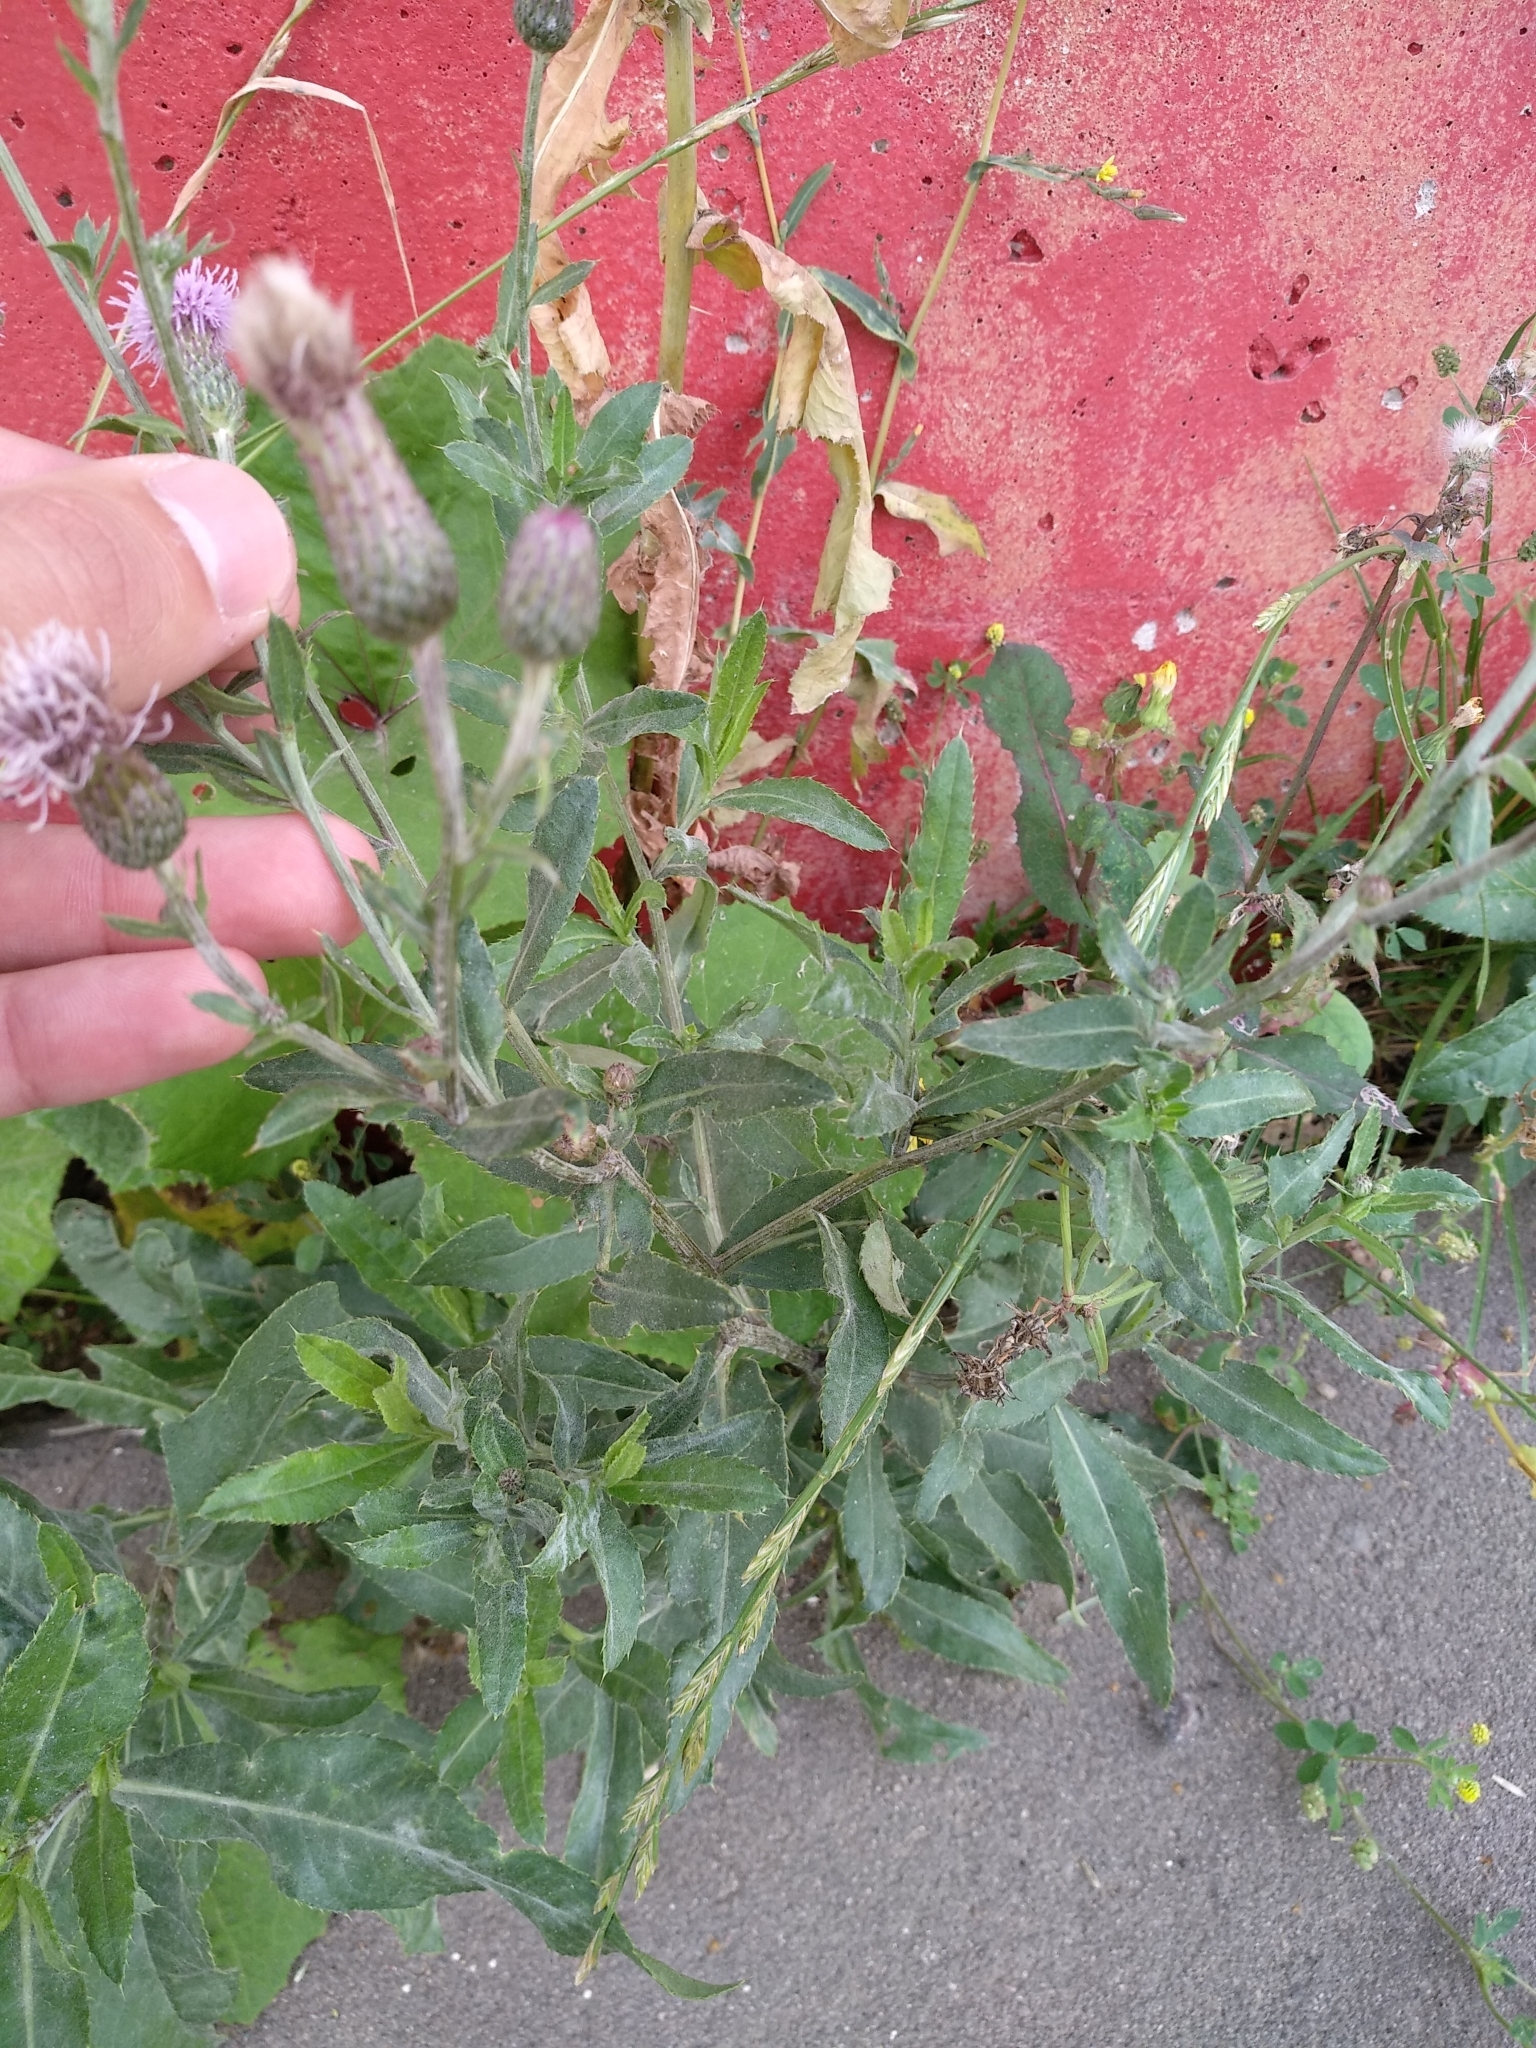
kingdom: Plantae
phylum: Tracheophyta
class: Magnoliopsida
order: Asterales
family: Asteraceae
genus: Cirsium
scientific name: Cirsium arvense
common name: Creeping thistle
